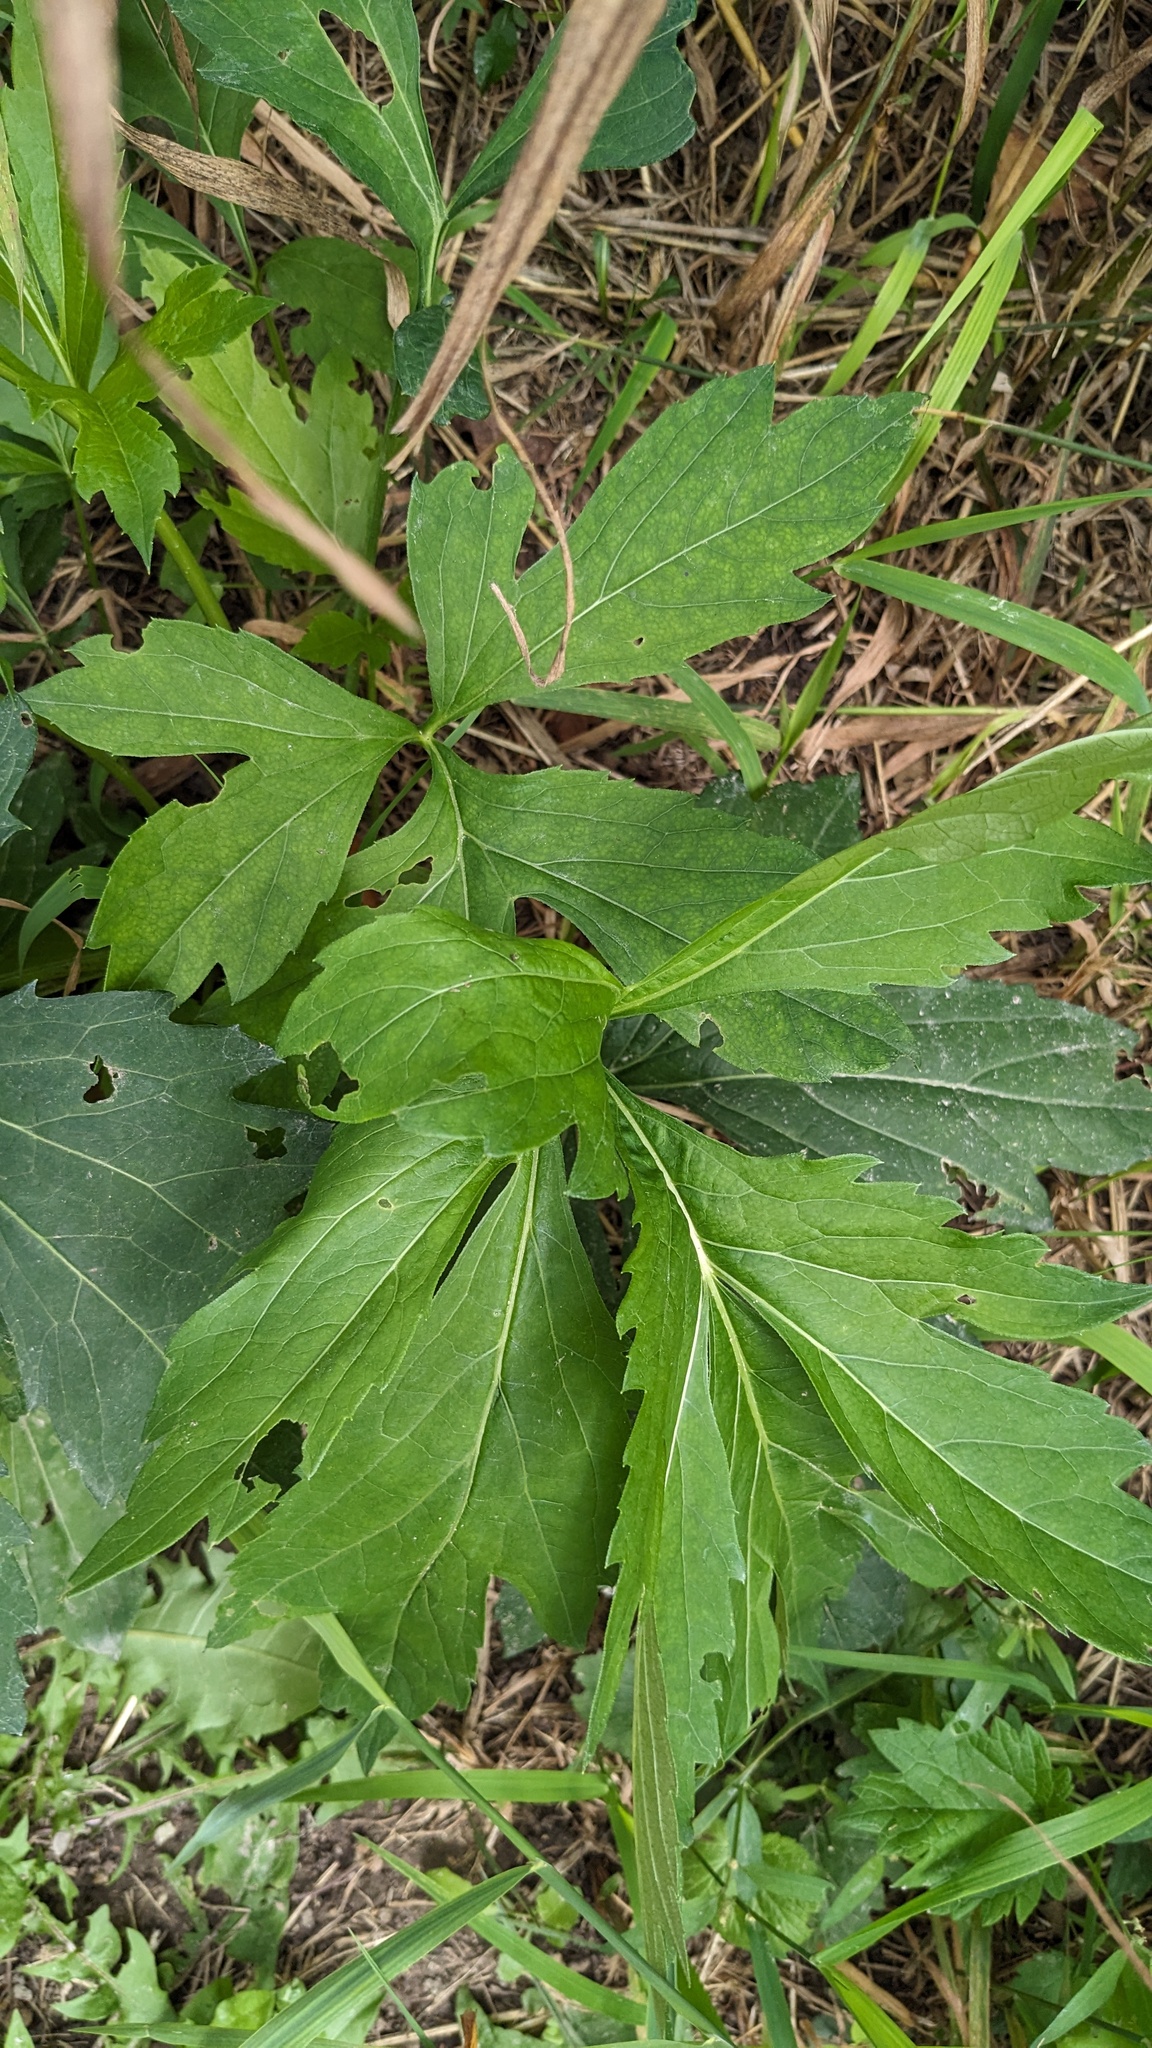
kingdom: Plantae
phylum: Tracheophyta
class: Magnoliopsida
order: Asterales
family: Asteraceae
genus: Rudbeckia
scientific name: Rudbeckia laciniata
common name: Coneflower
